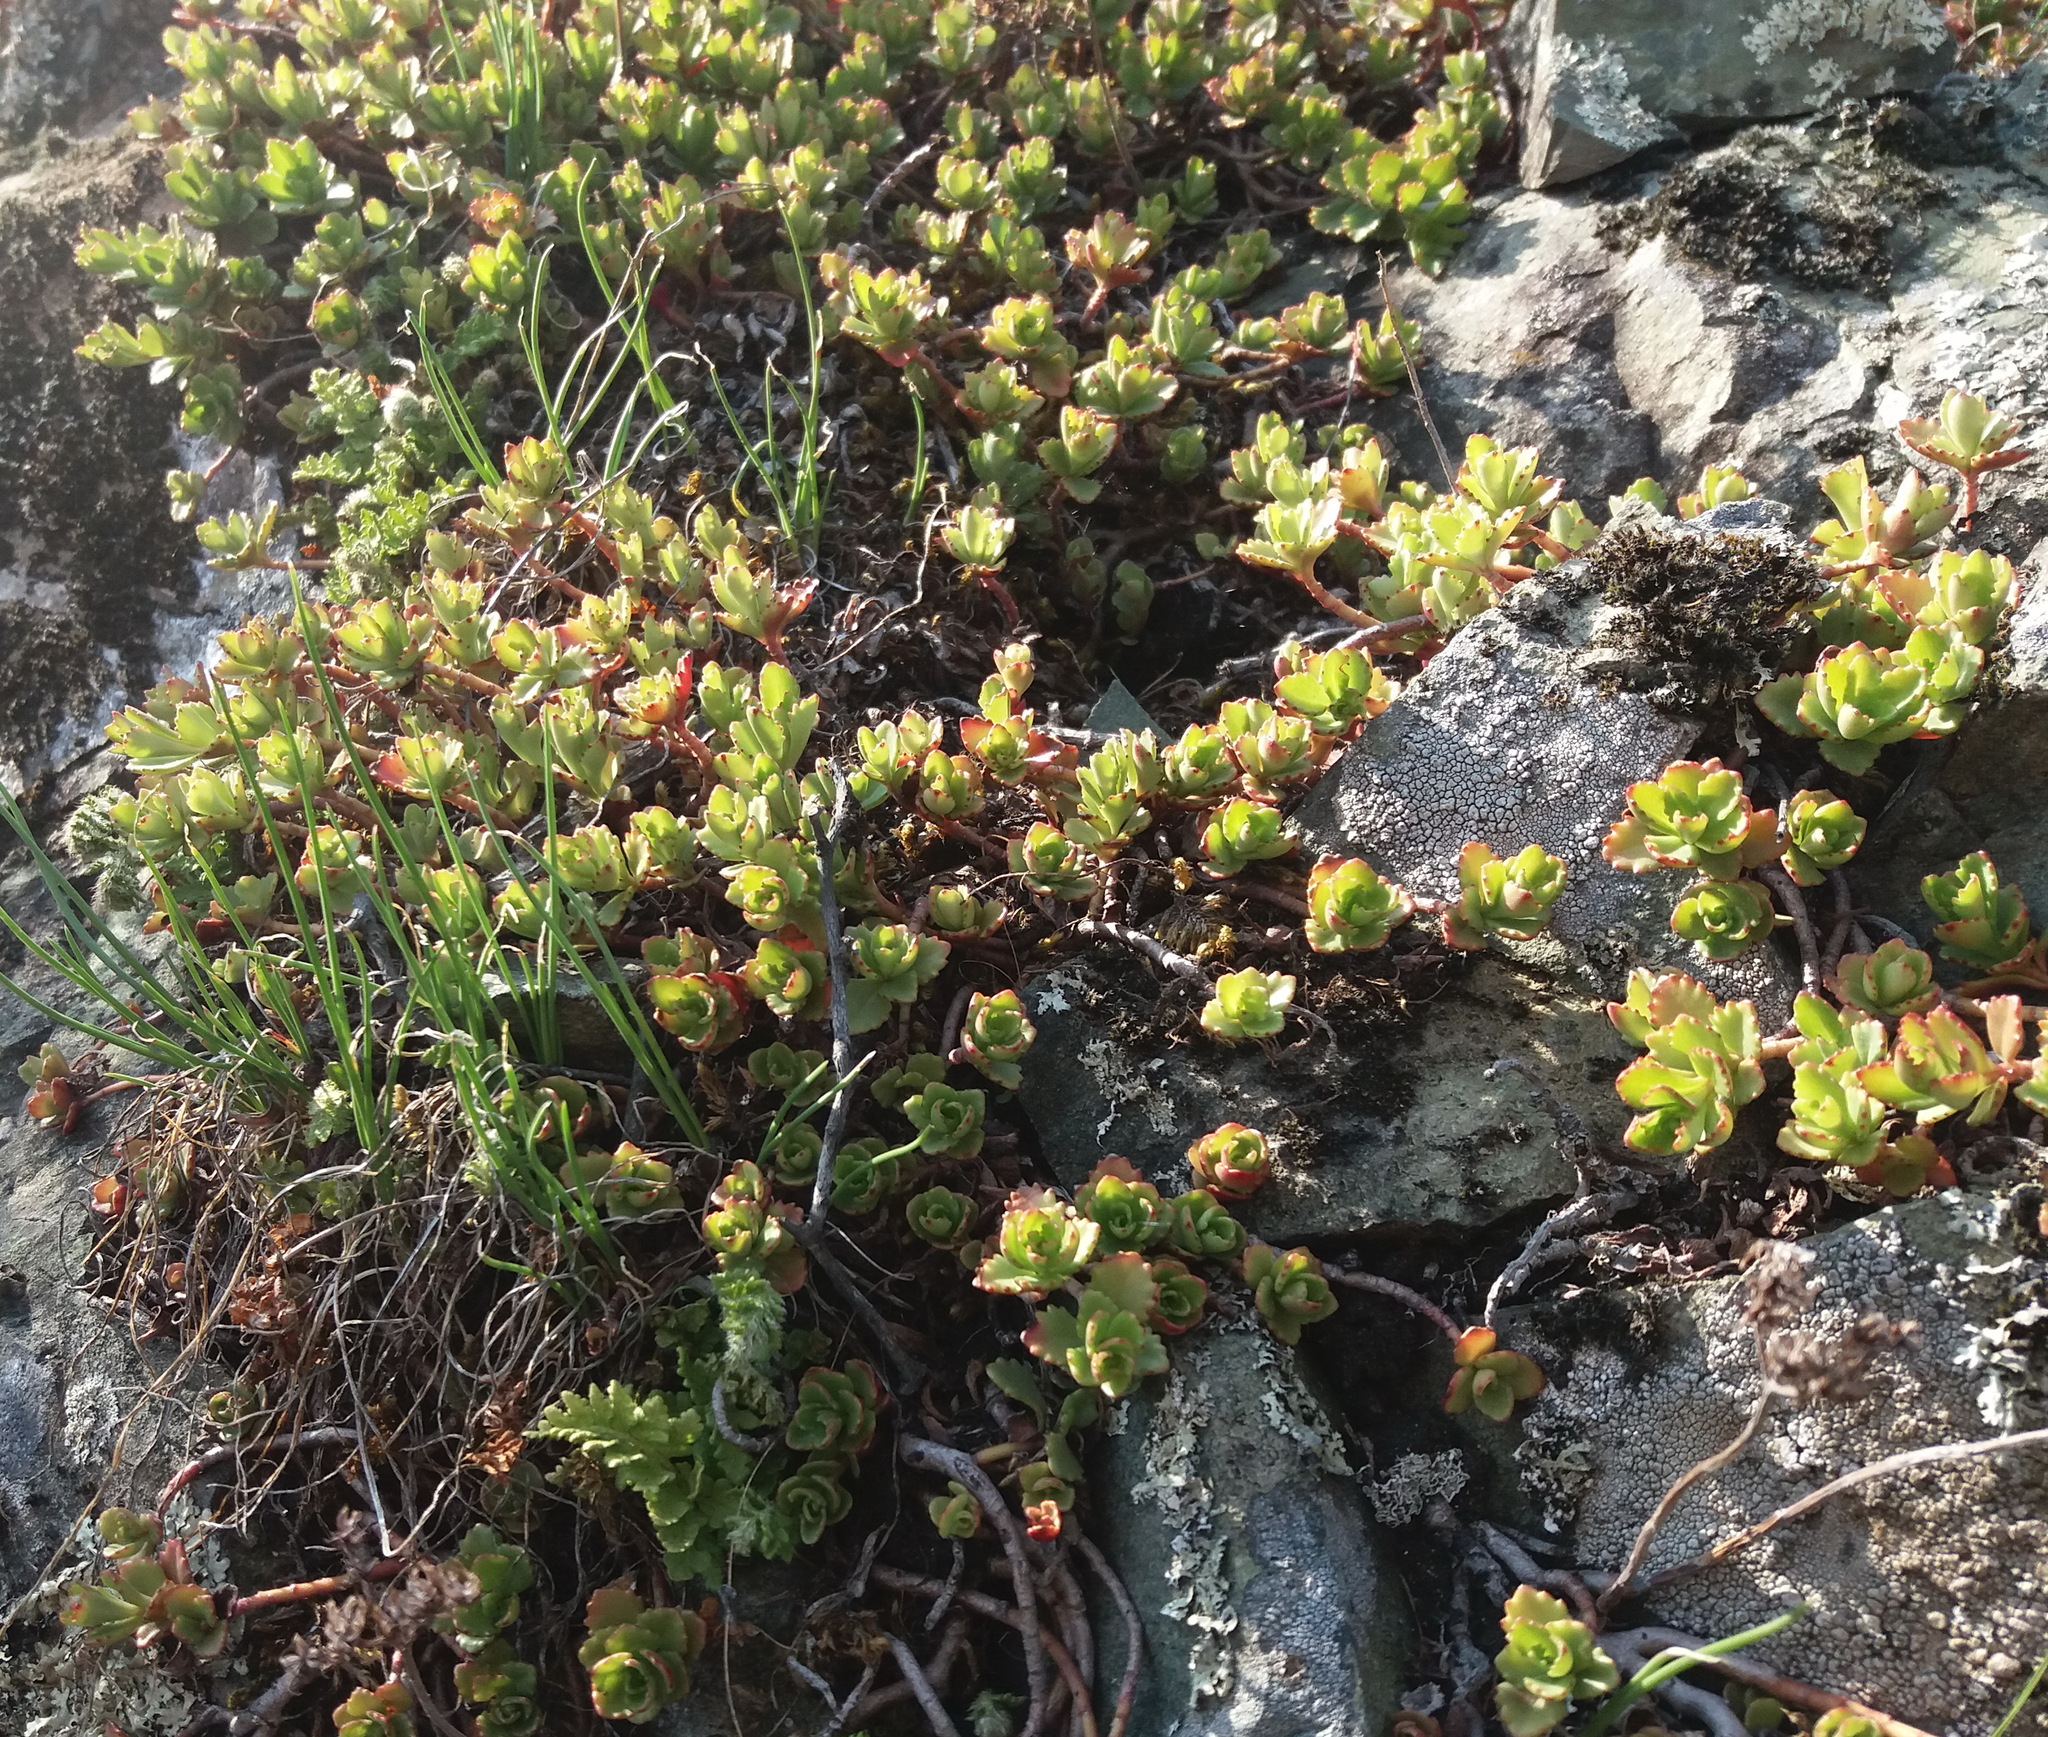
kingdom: Plantae
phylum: Tracheophyta
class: Magnoliopsida
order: Saxifragales
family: Crassulaceae
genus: Phedimus
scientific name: Phedimus hybridus
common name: Hybrid stonecrop
